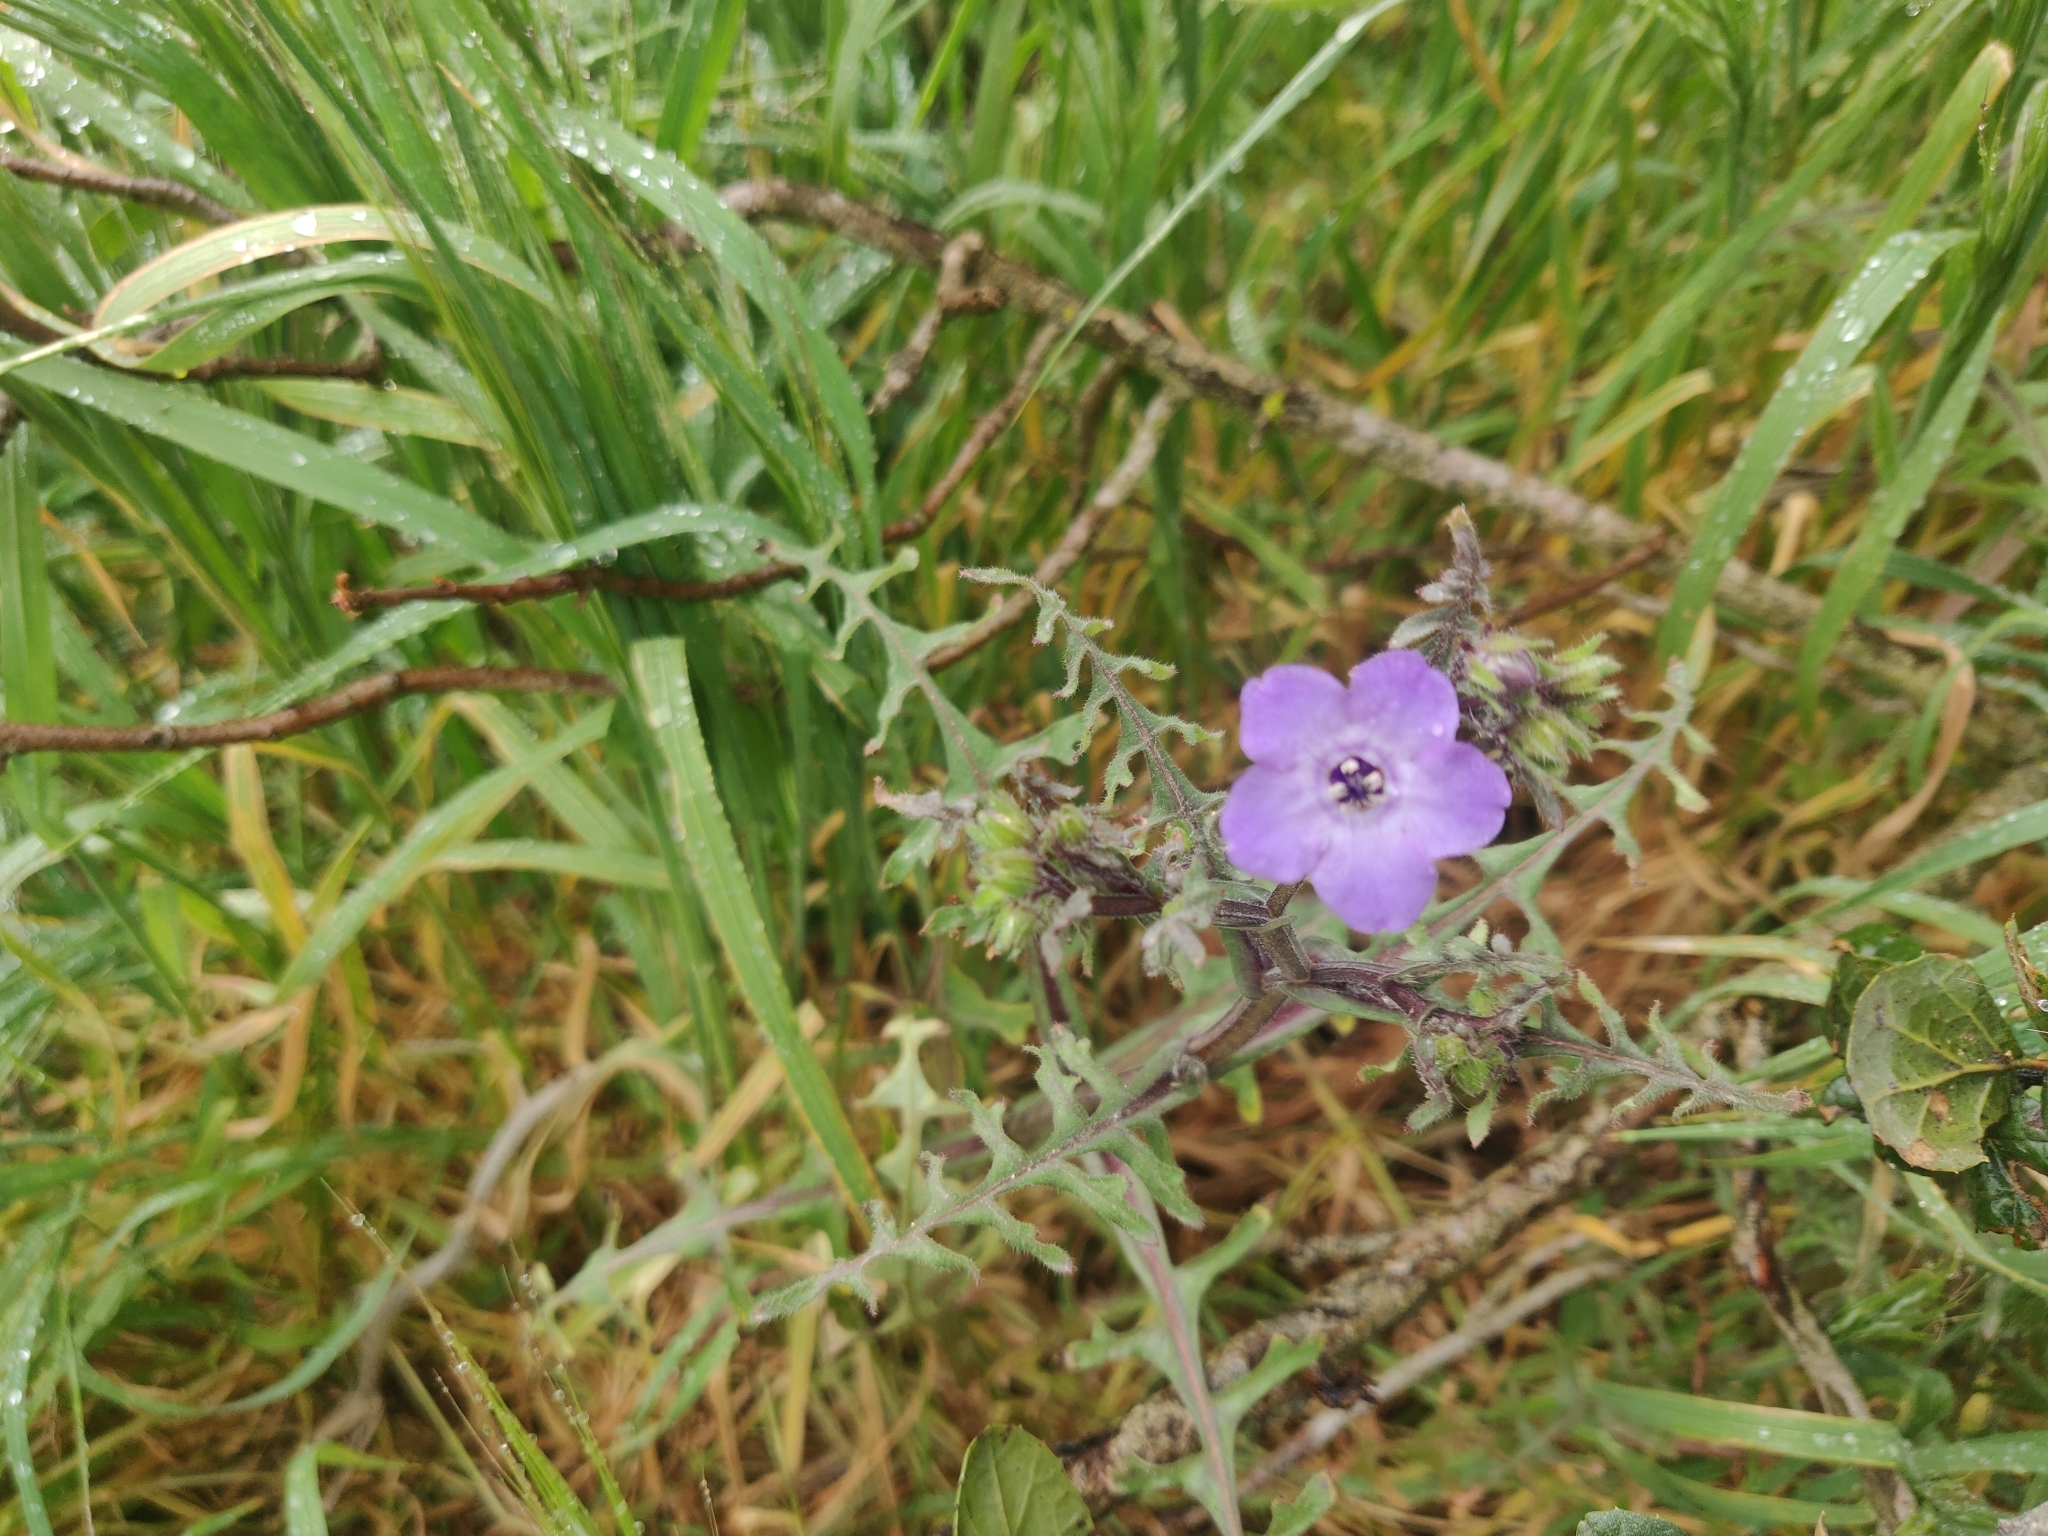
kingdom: Plantae
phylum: Tracheophyta
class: Magnoliopsida
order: Boraginales
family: Hydrophyllaceae
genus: Pholistoma
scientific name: Pholistoma auritum
